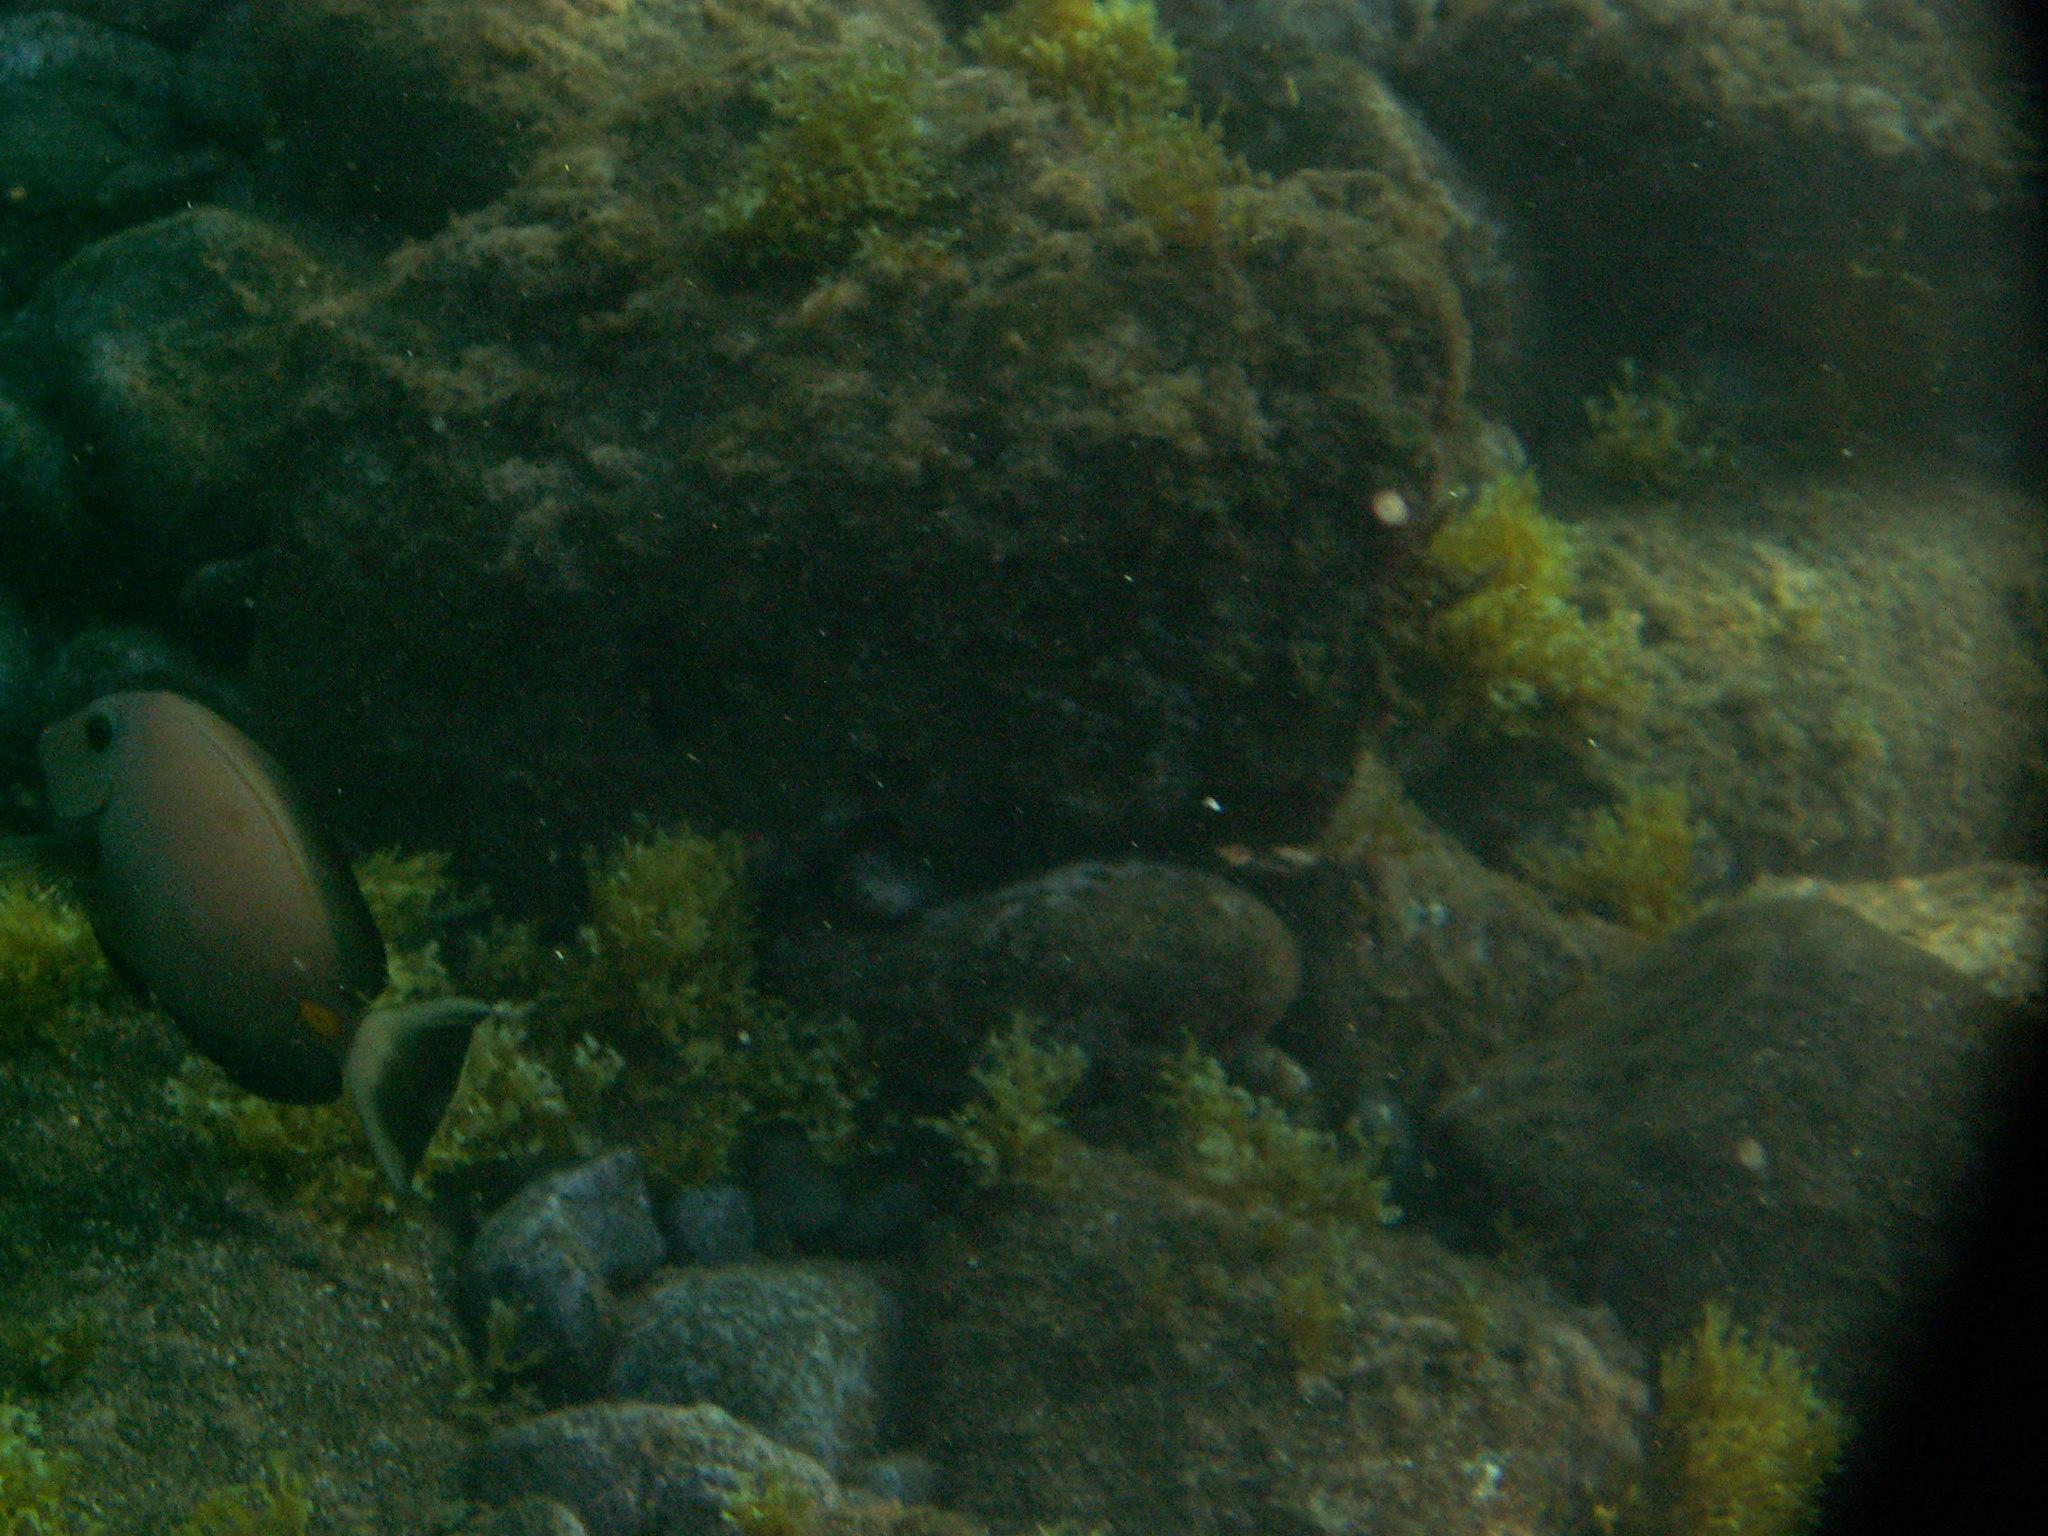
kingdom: Animalia
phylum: Chordata
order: Perciformes
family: Acanthuridae
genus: Acanthurus
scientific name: Acanthurus monroviae
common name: Monrovia surgeonfish
